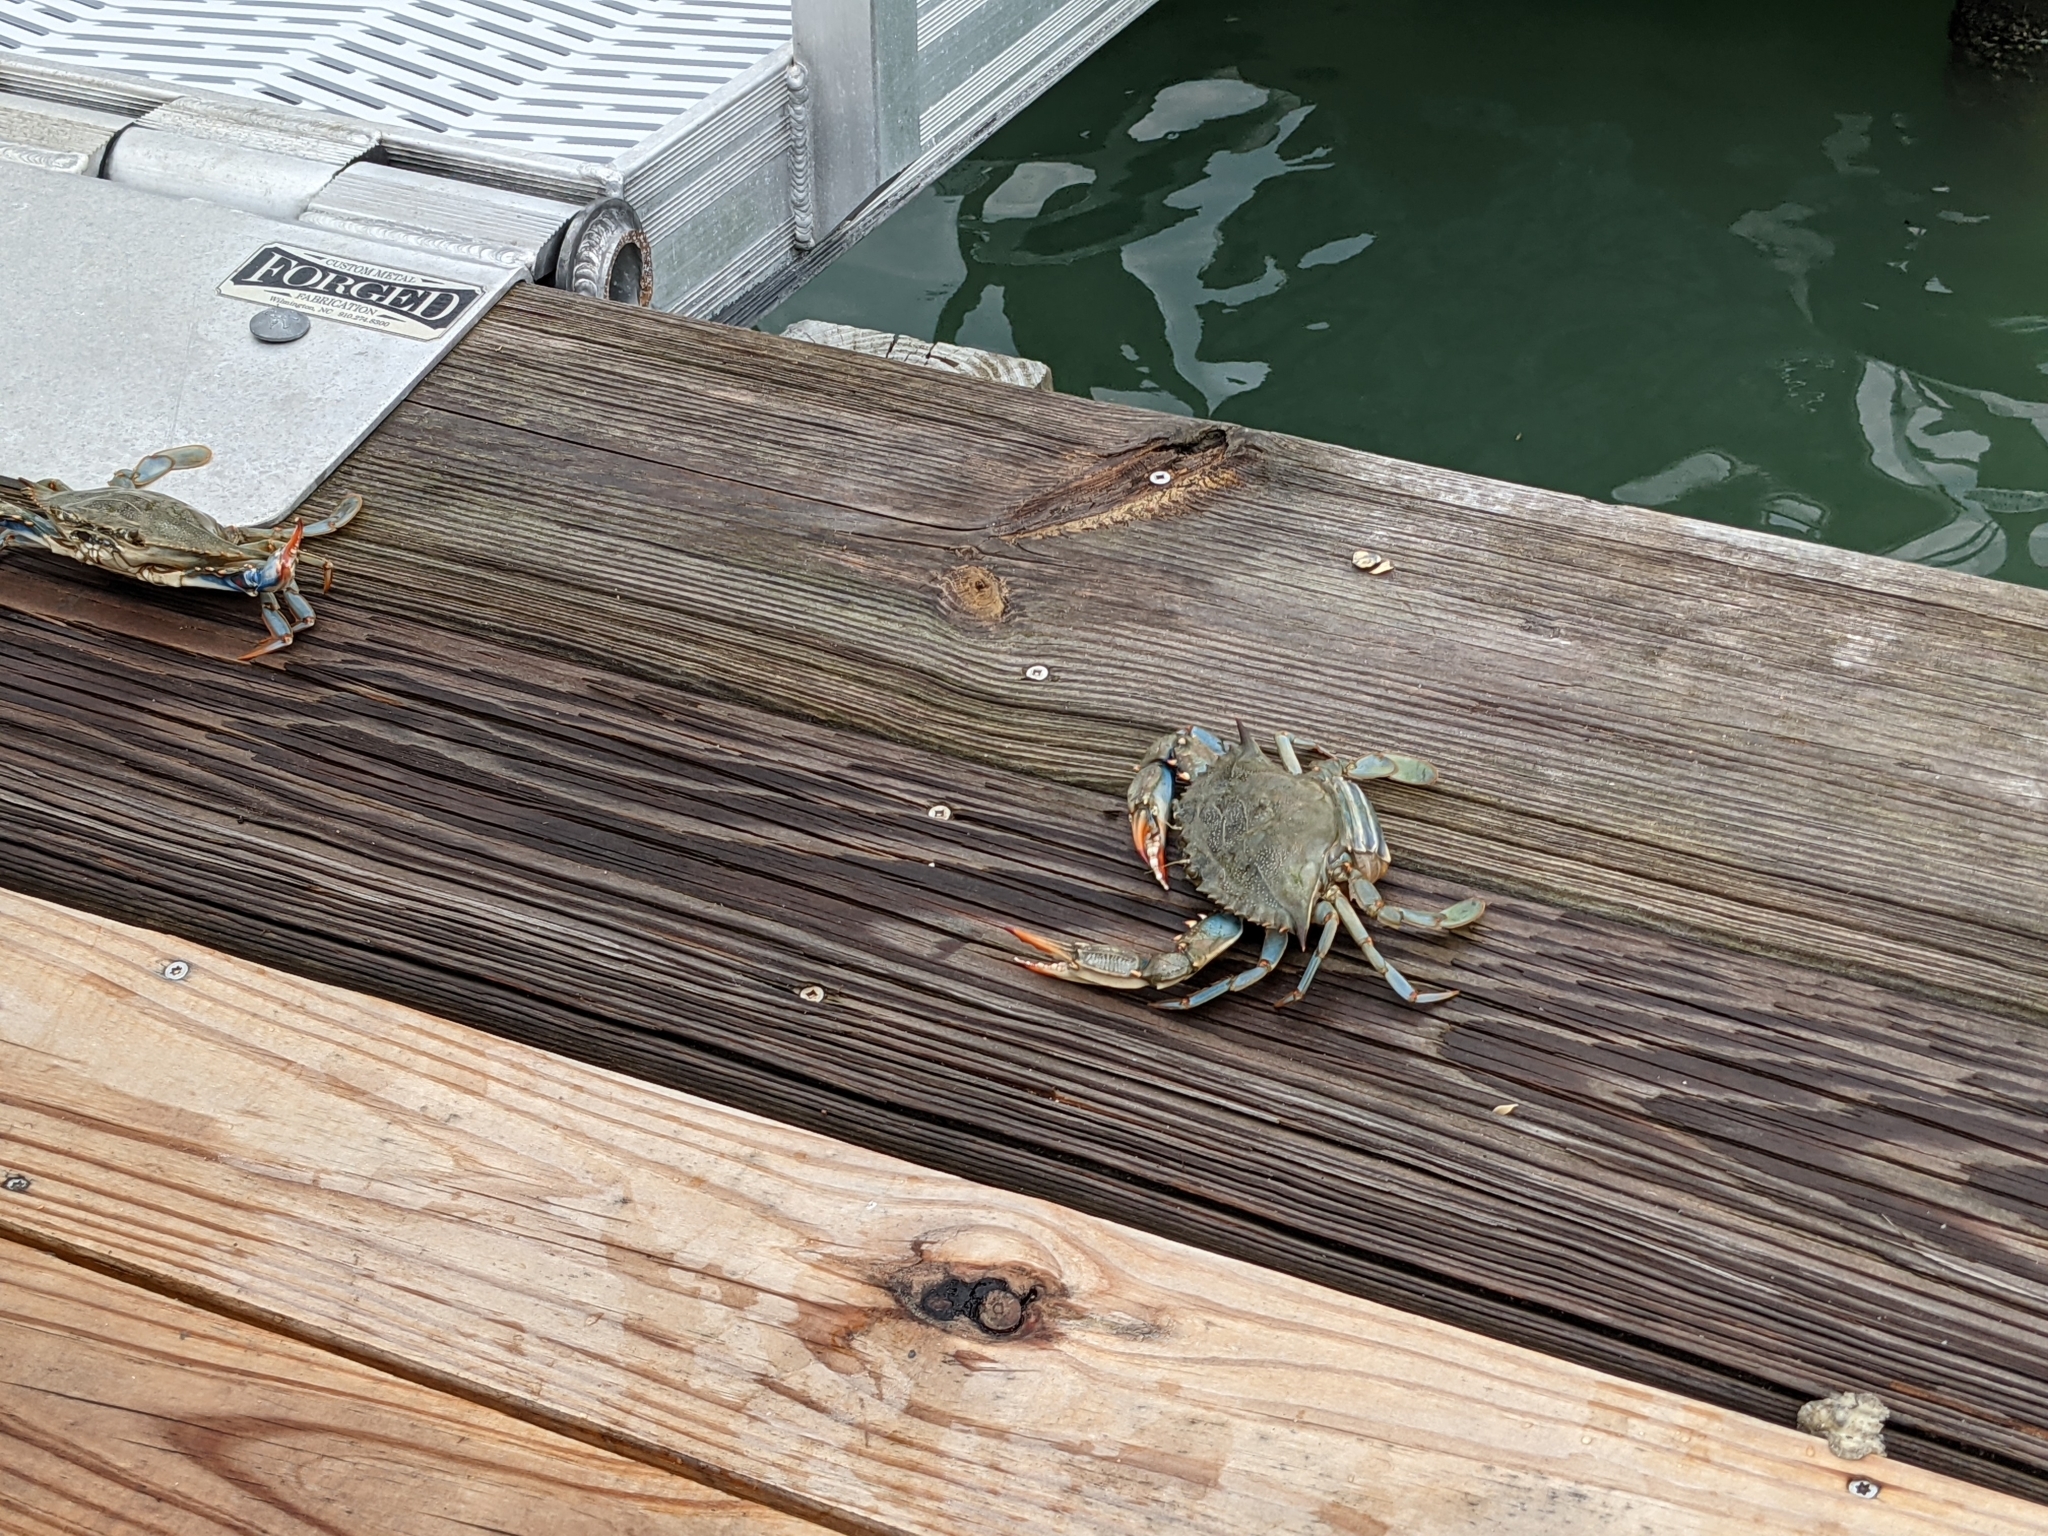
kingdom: Animalia
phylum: Arthropoda
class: Malacostraca
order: Decapoda
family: Portunidae
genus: Callinectes
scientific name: Callinectes sapidus
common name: Blue crab
